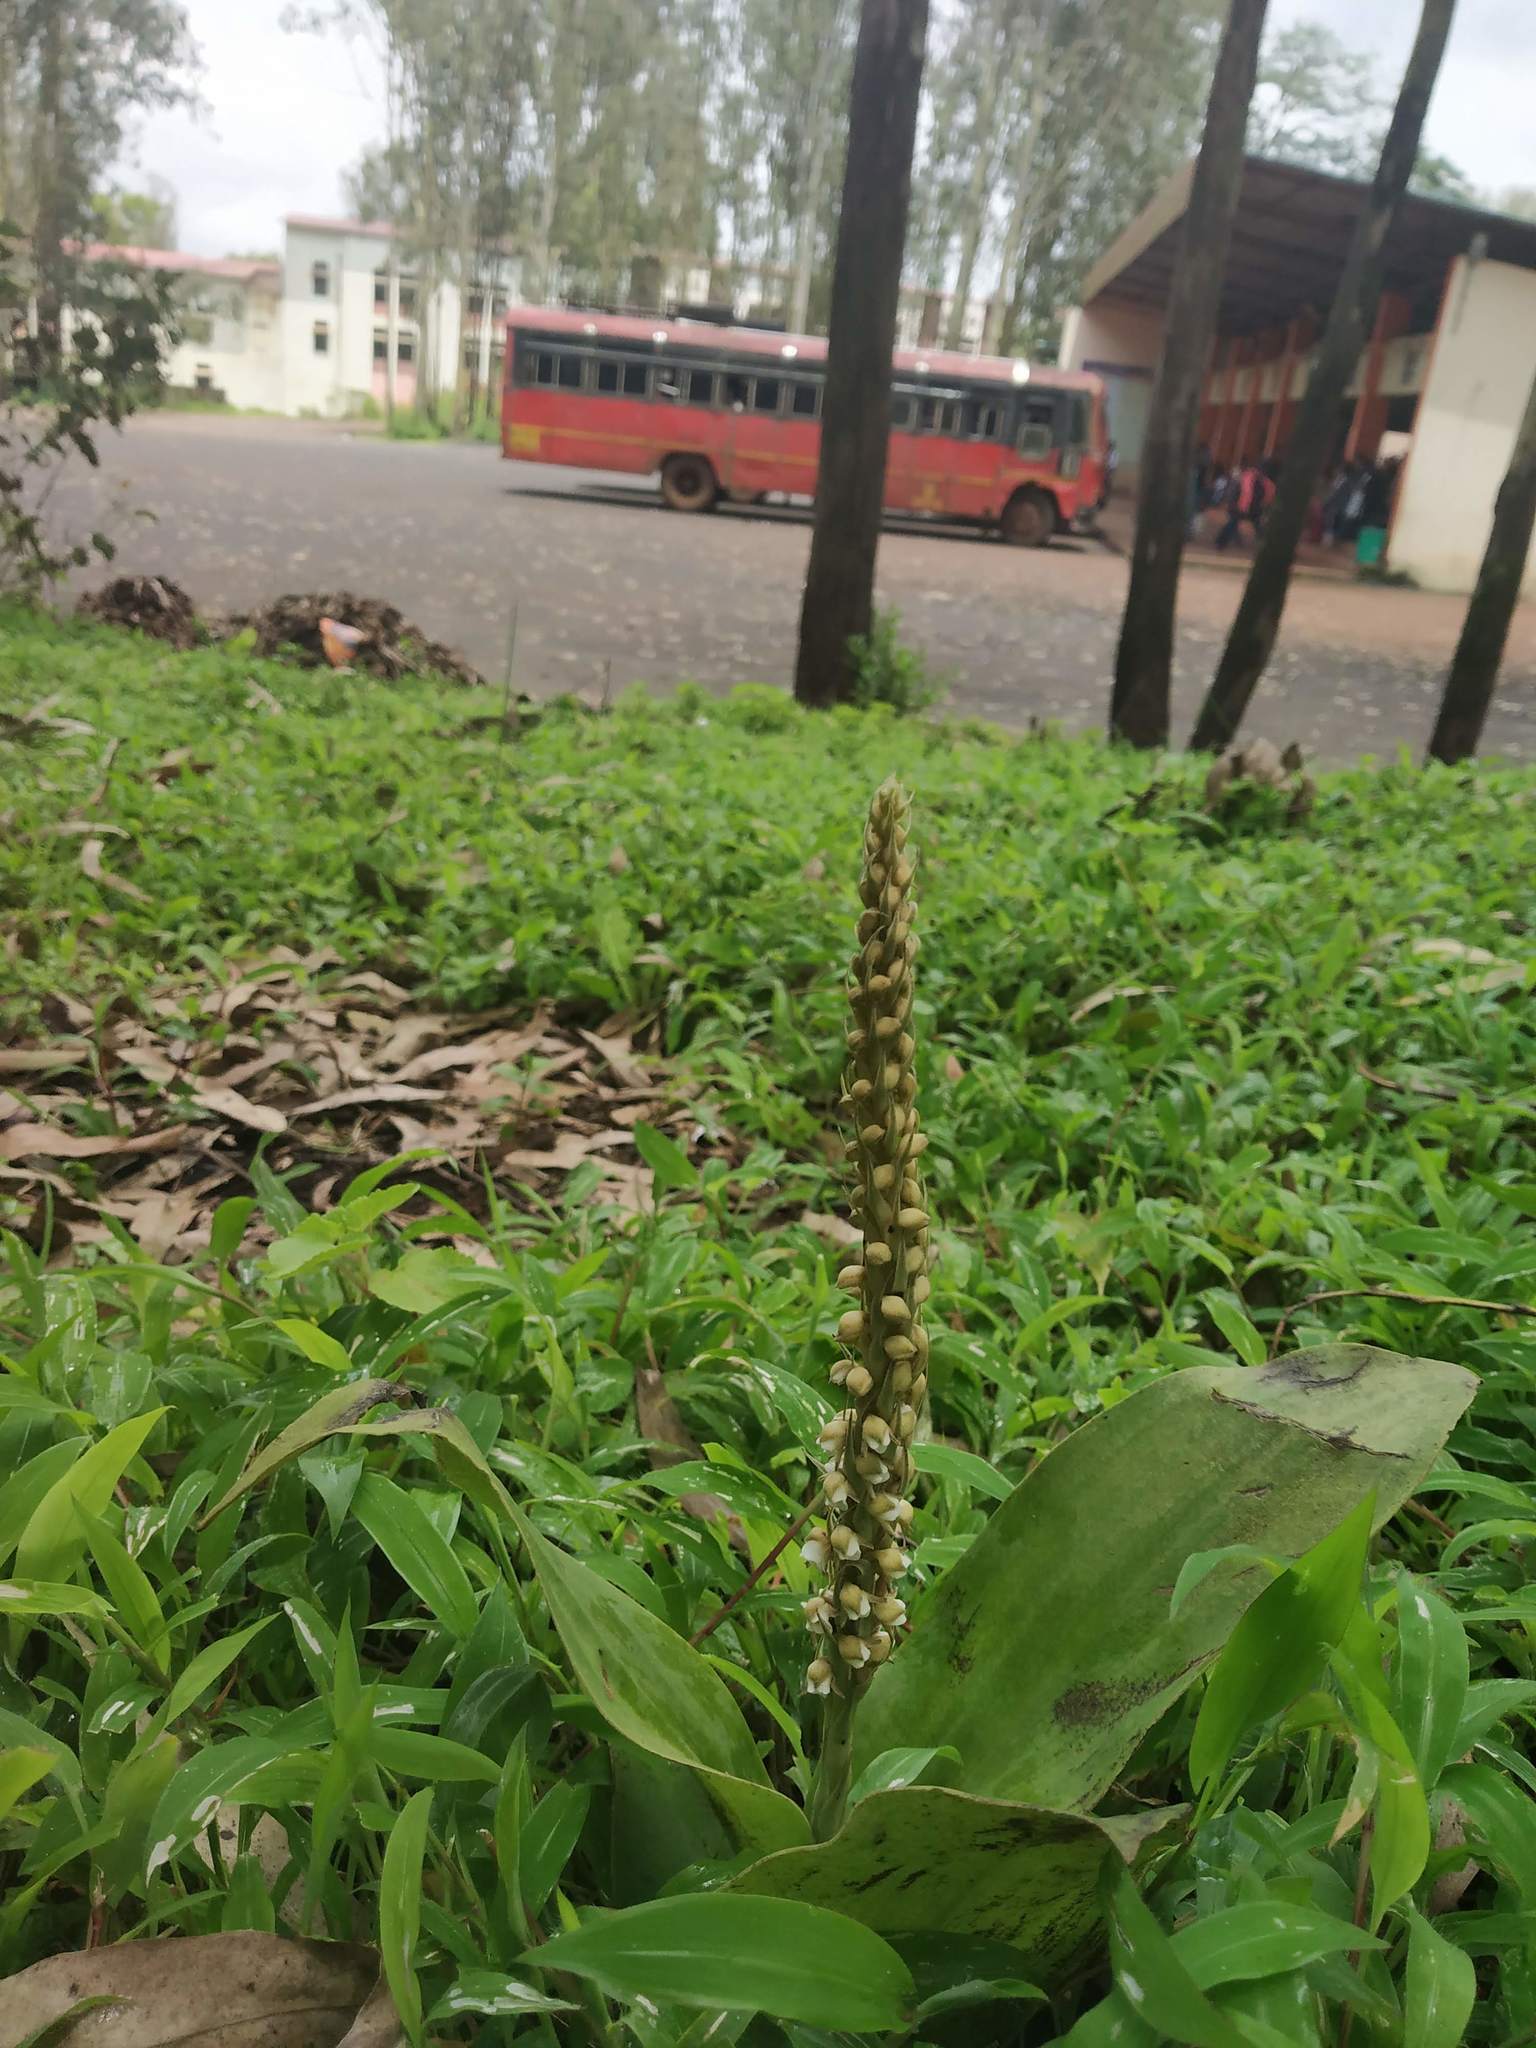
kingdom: Plantae
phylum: Tracheophyta
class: Liliopsida
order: Asparagales
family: Orchidaceae
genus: Peristylus
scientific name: Peristylus plantagineus
